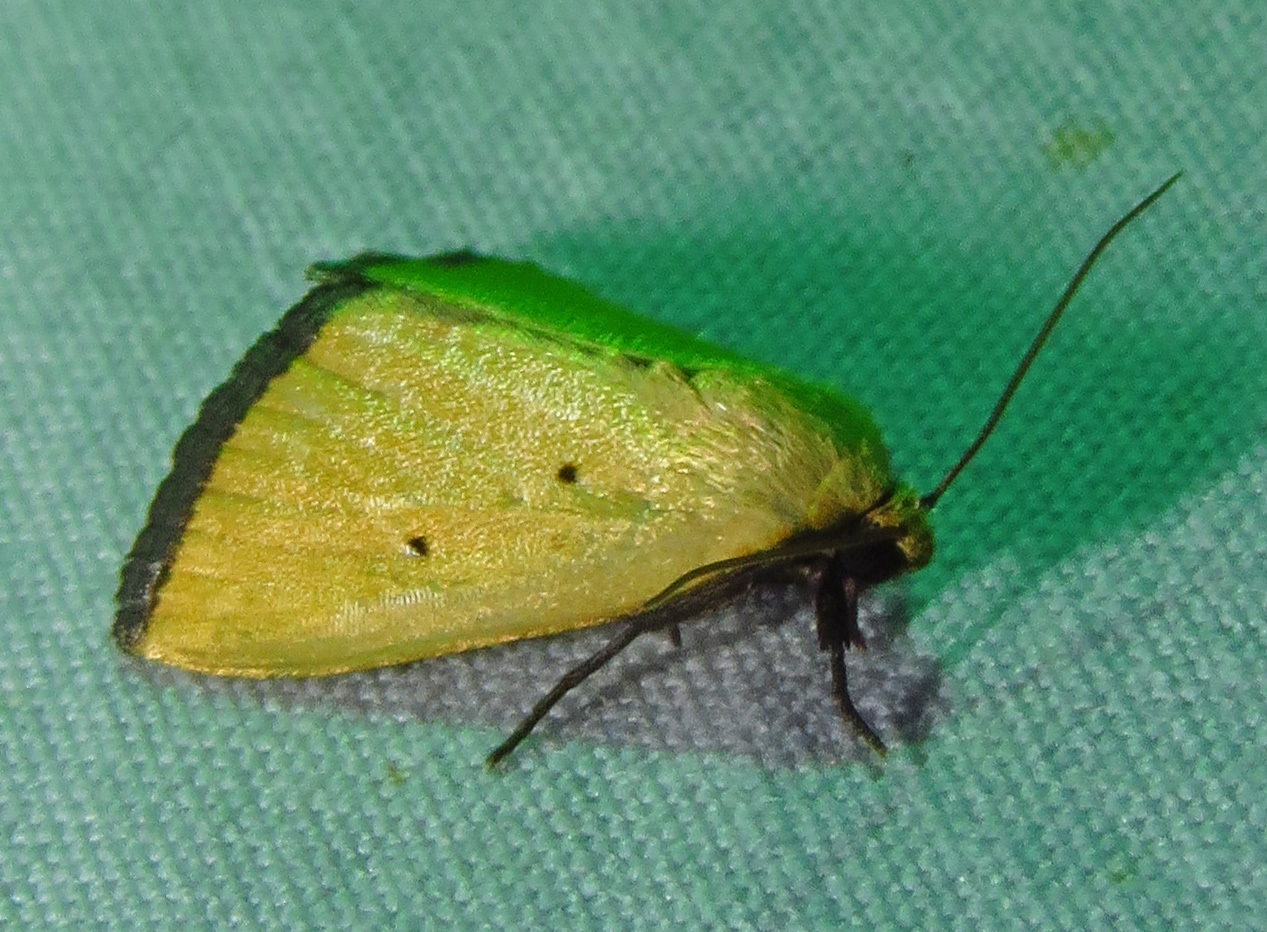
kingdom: Animalia
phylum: Arthropoda
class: Insecta
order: Lepidoptera
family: Noctuidae
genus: Marimatha
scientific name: Marimatha nigrofimbria
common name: Black-bordered lemon moth
